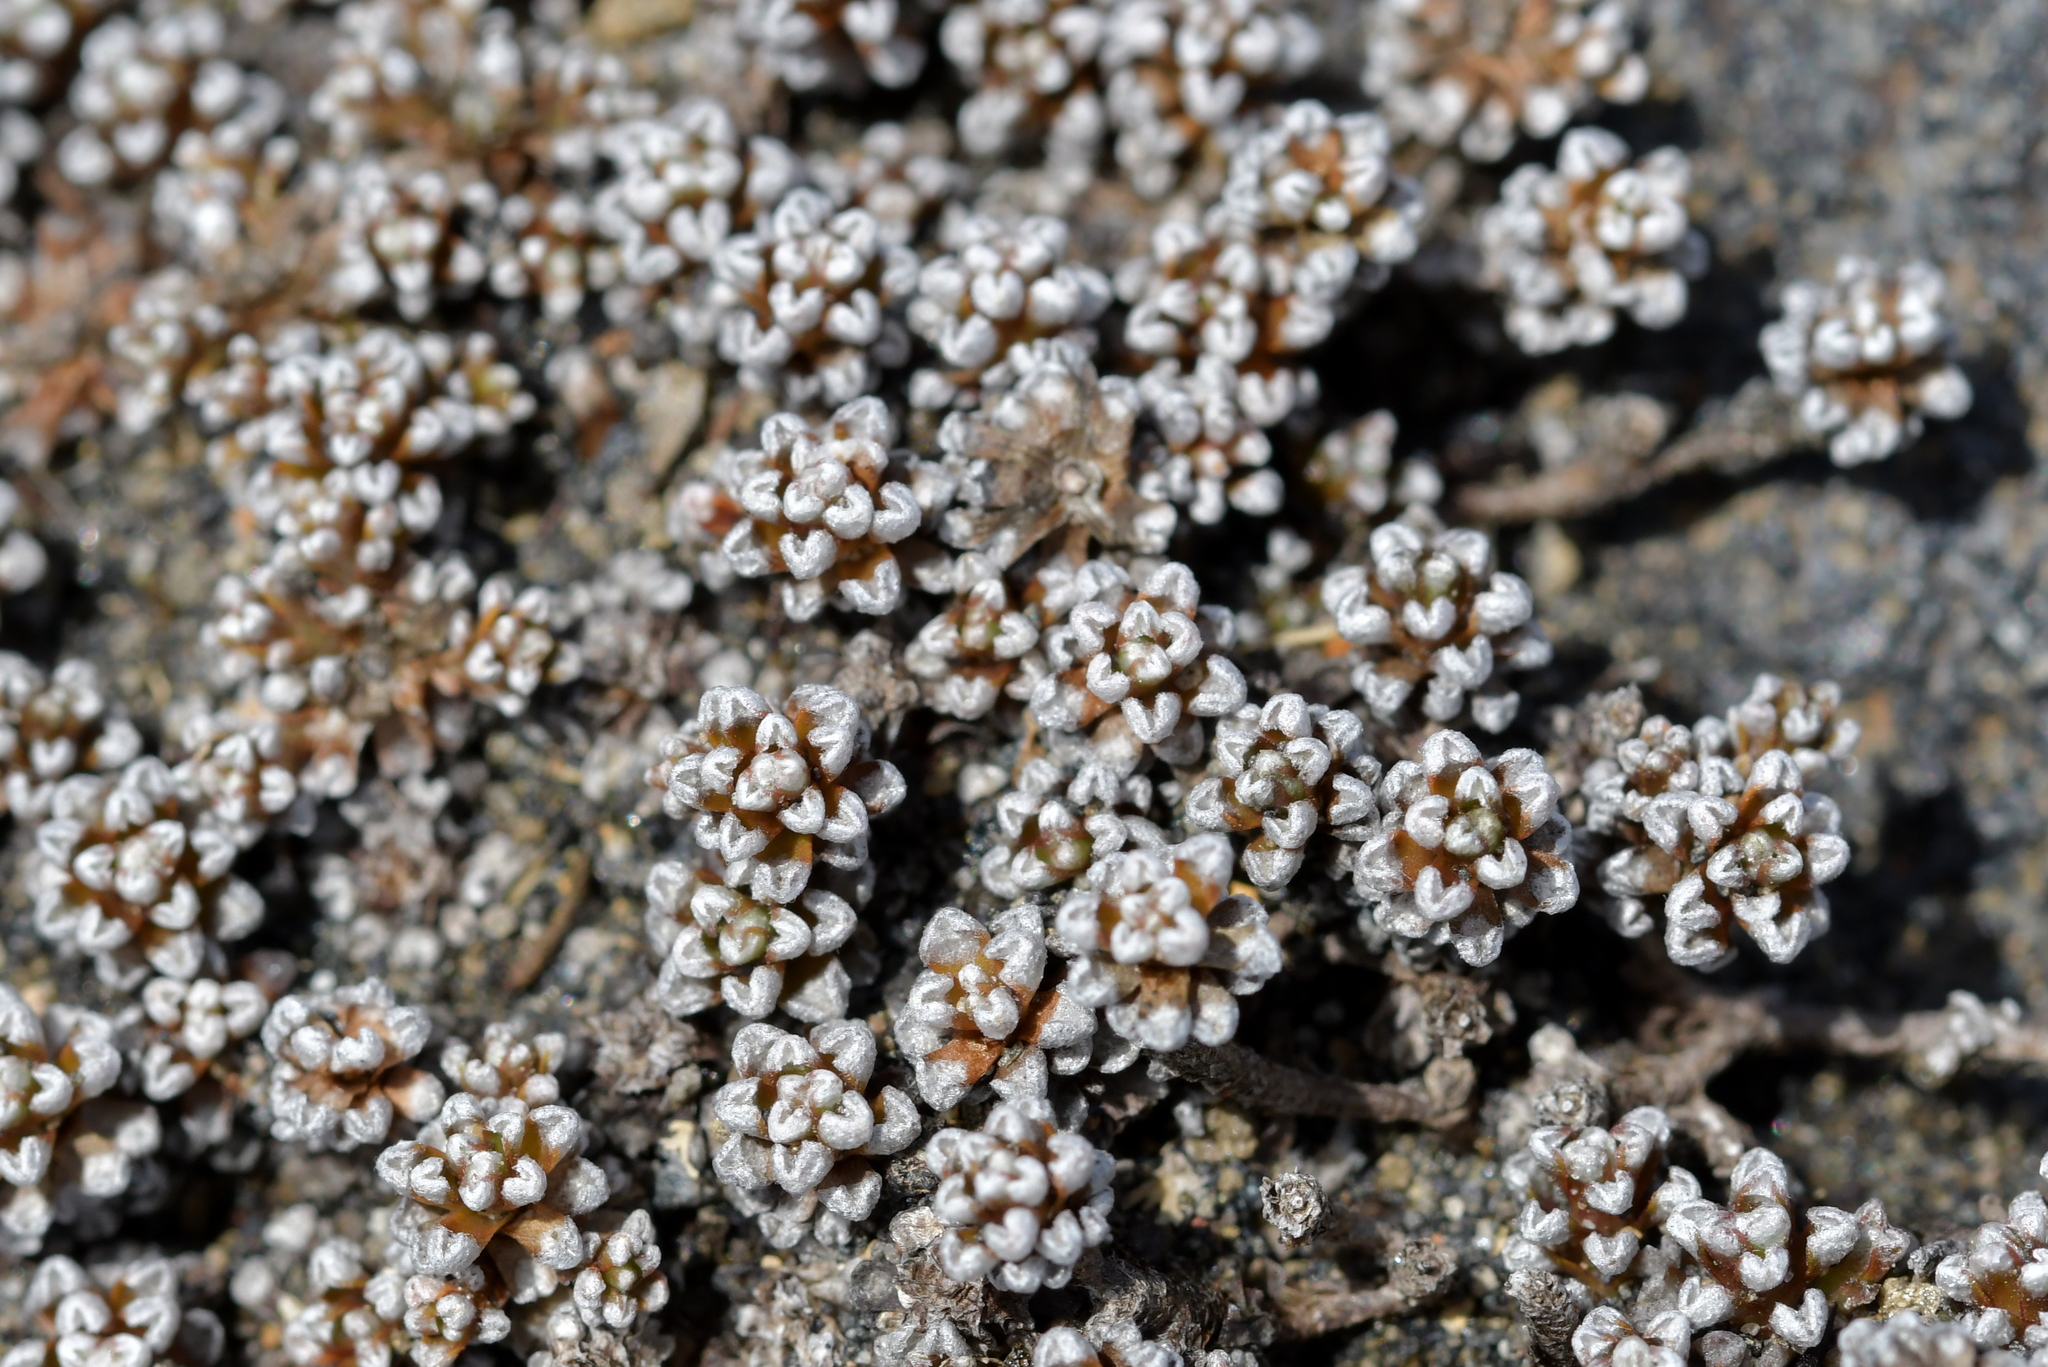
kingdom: Plantae
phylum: Tracheophyta
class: Magnoliopsida
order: Asterales
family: Asteraceae
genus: Raoulia
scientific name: Raoulia albosericea
